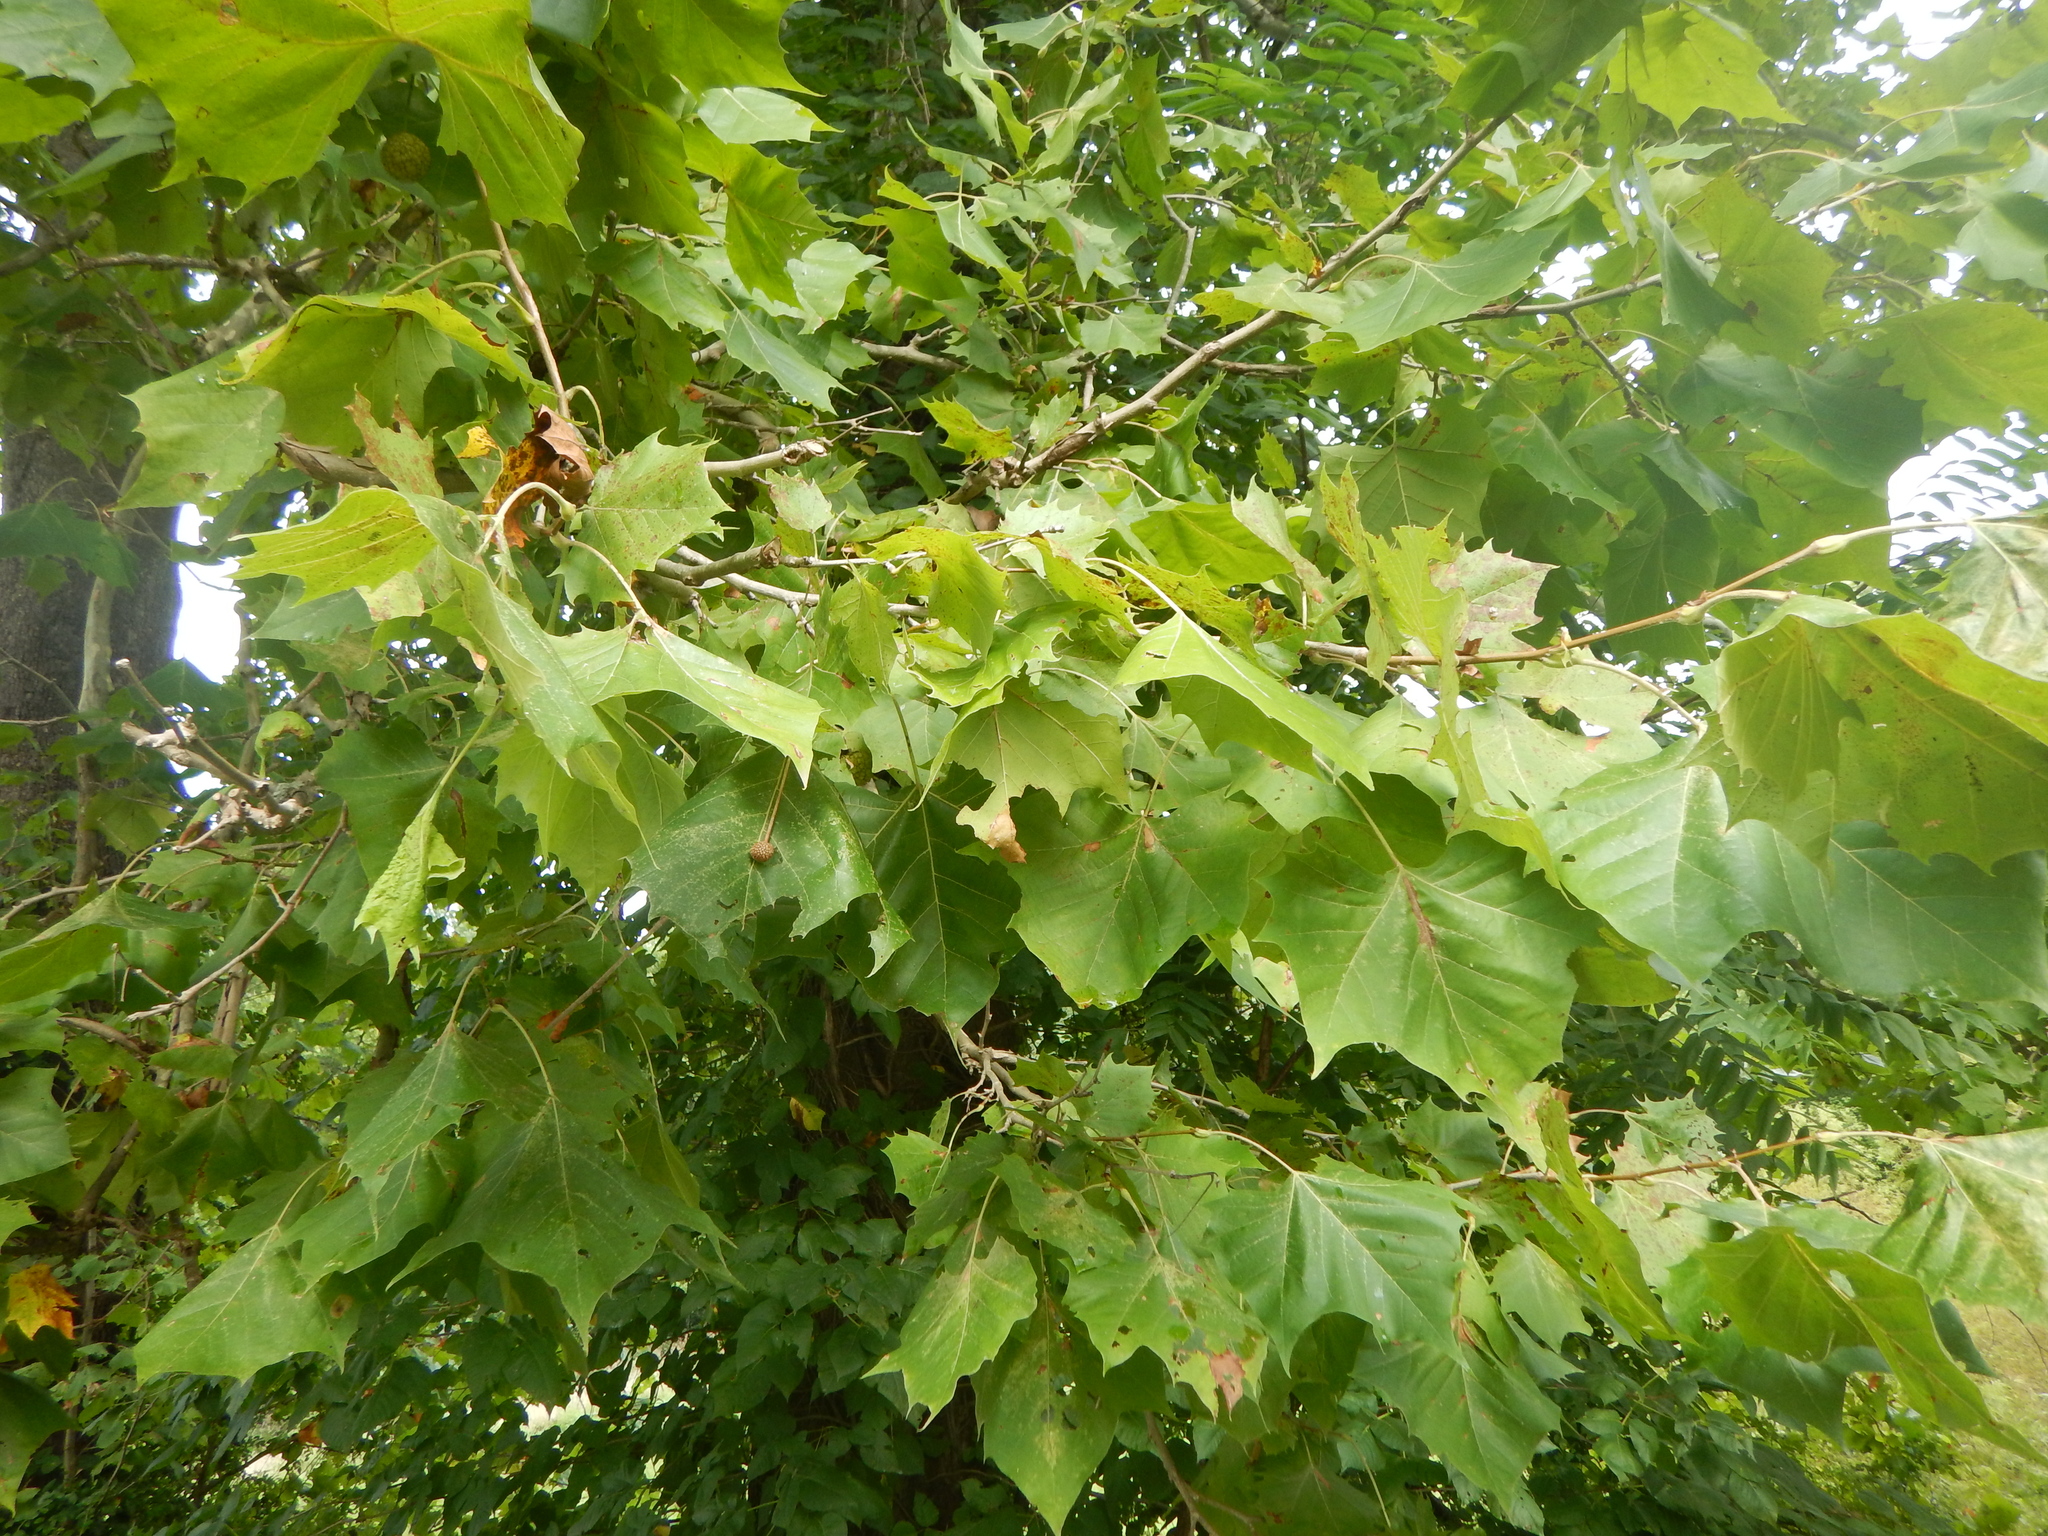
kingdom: Plantae
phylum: Tracheophyta
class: Magnoliopsida
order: Proteales
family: Platanaceae
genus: Platanus
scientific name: Platanus occidentalis
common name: American sycamore
